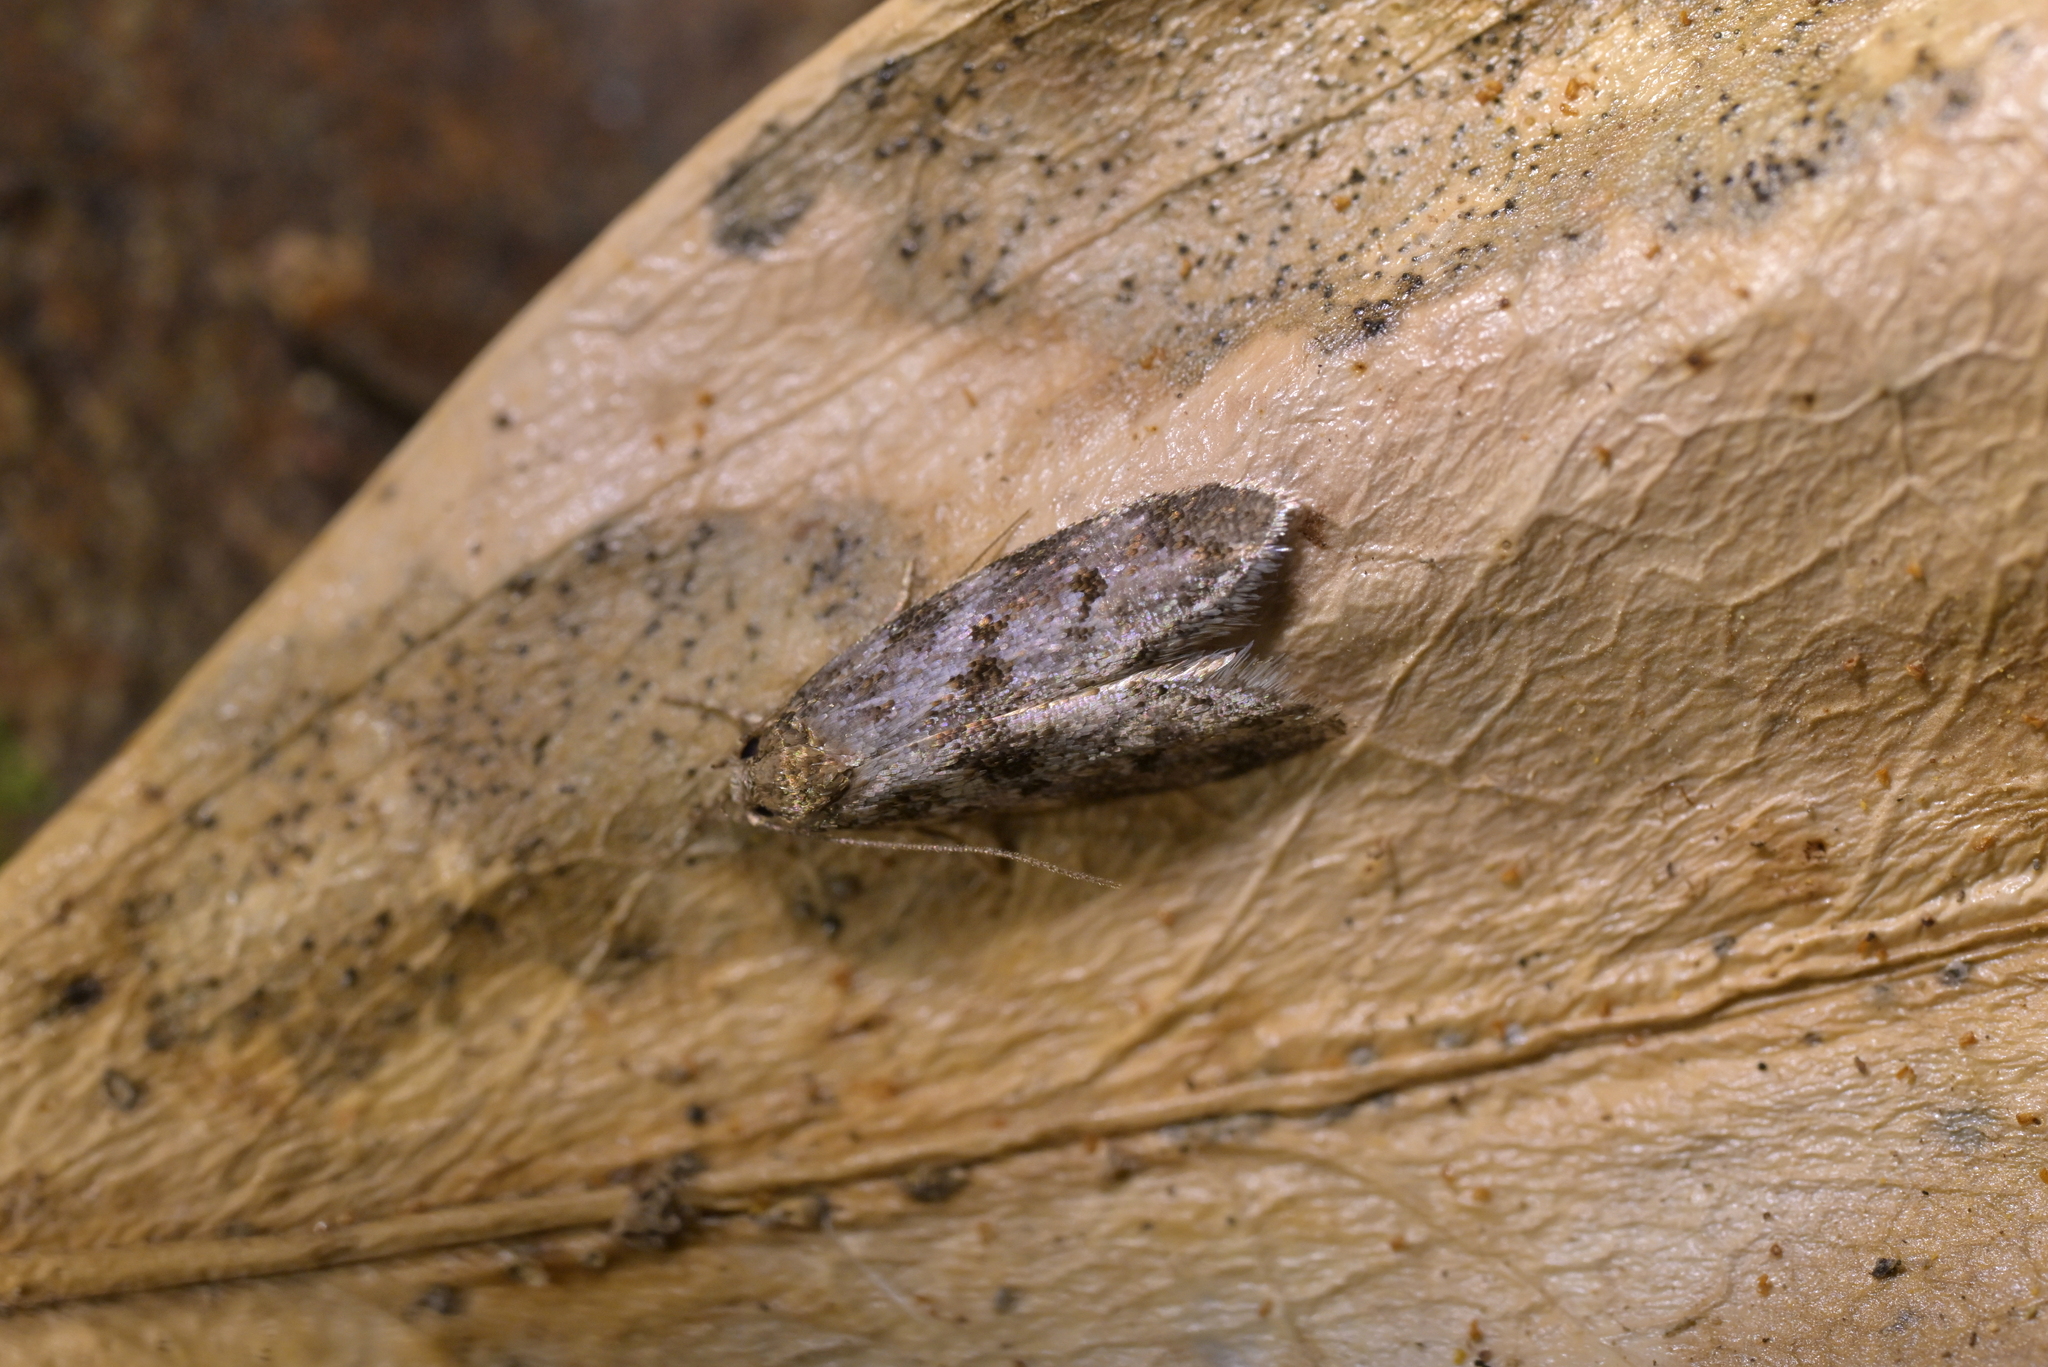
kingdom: Animalia
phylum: Arthropoda
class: Insecta
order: Lepidoptera
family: Oecophoridae
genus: Trachypepla
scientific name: Trachypepla photinella
